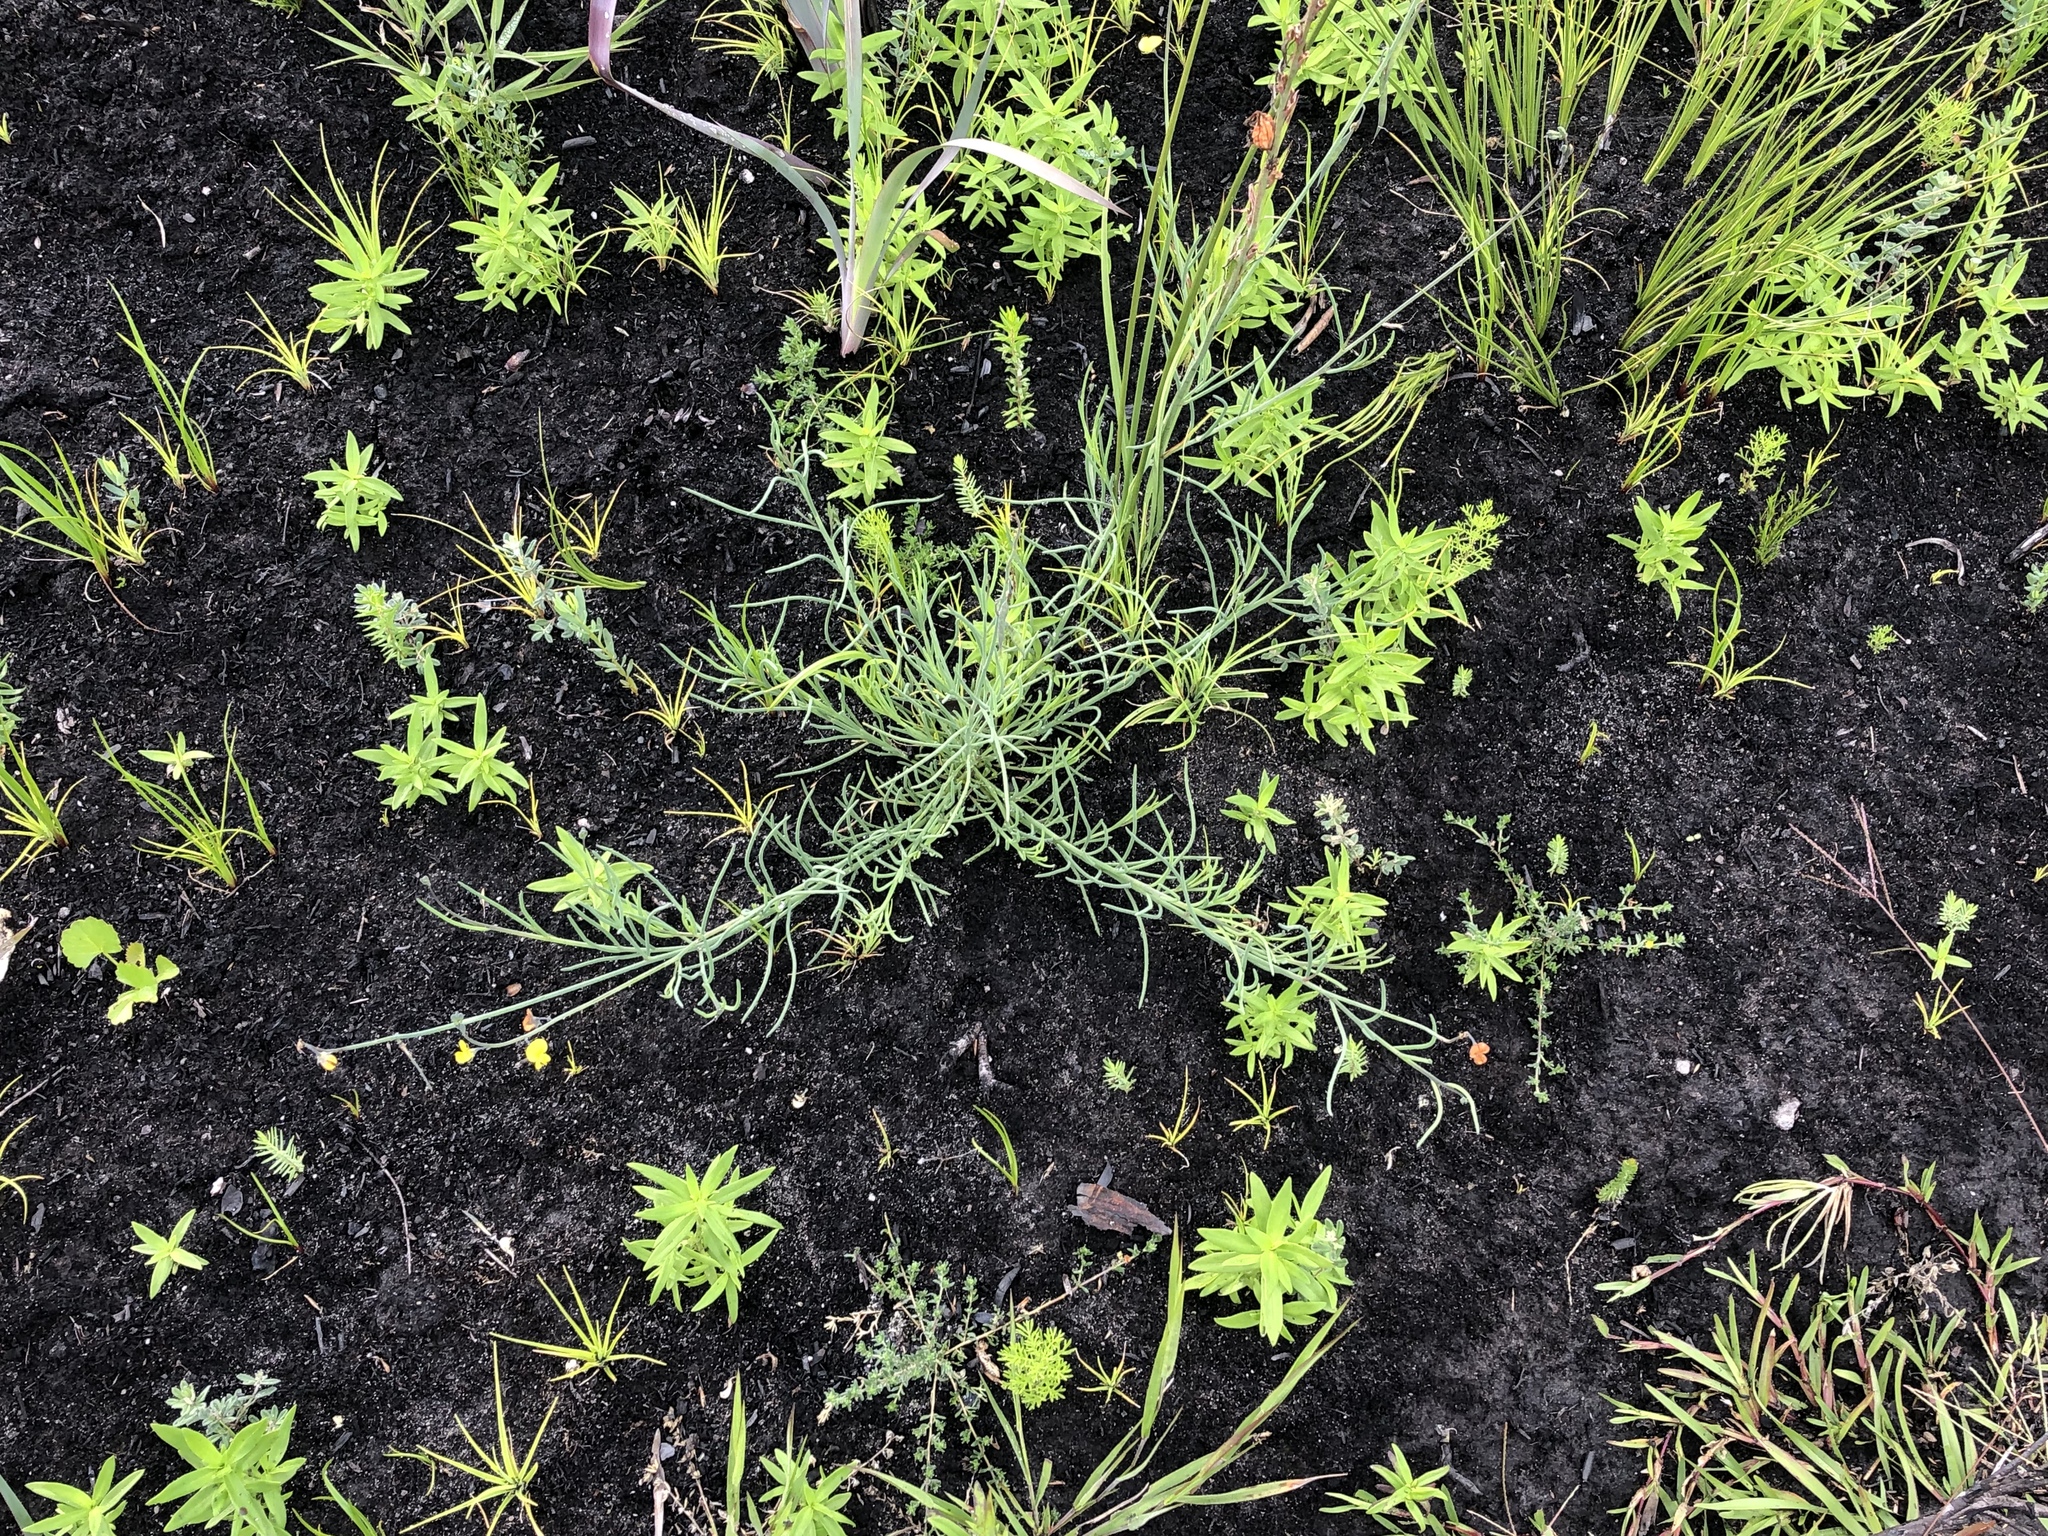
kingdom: Plantae
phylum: Tracheophyta
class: Magnoliopsida
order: Fabales
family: Fabaceae
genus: Lebeckia
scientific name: Lebeckia brevipes
